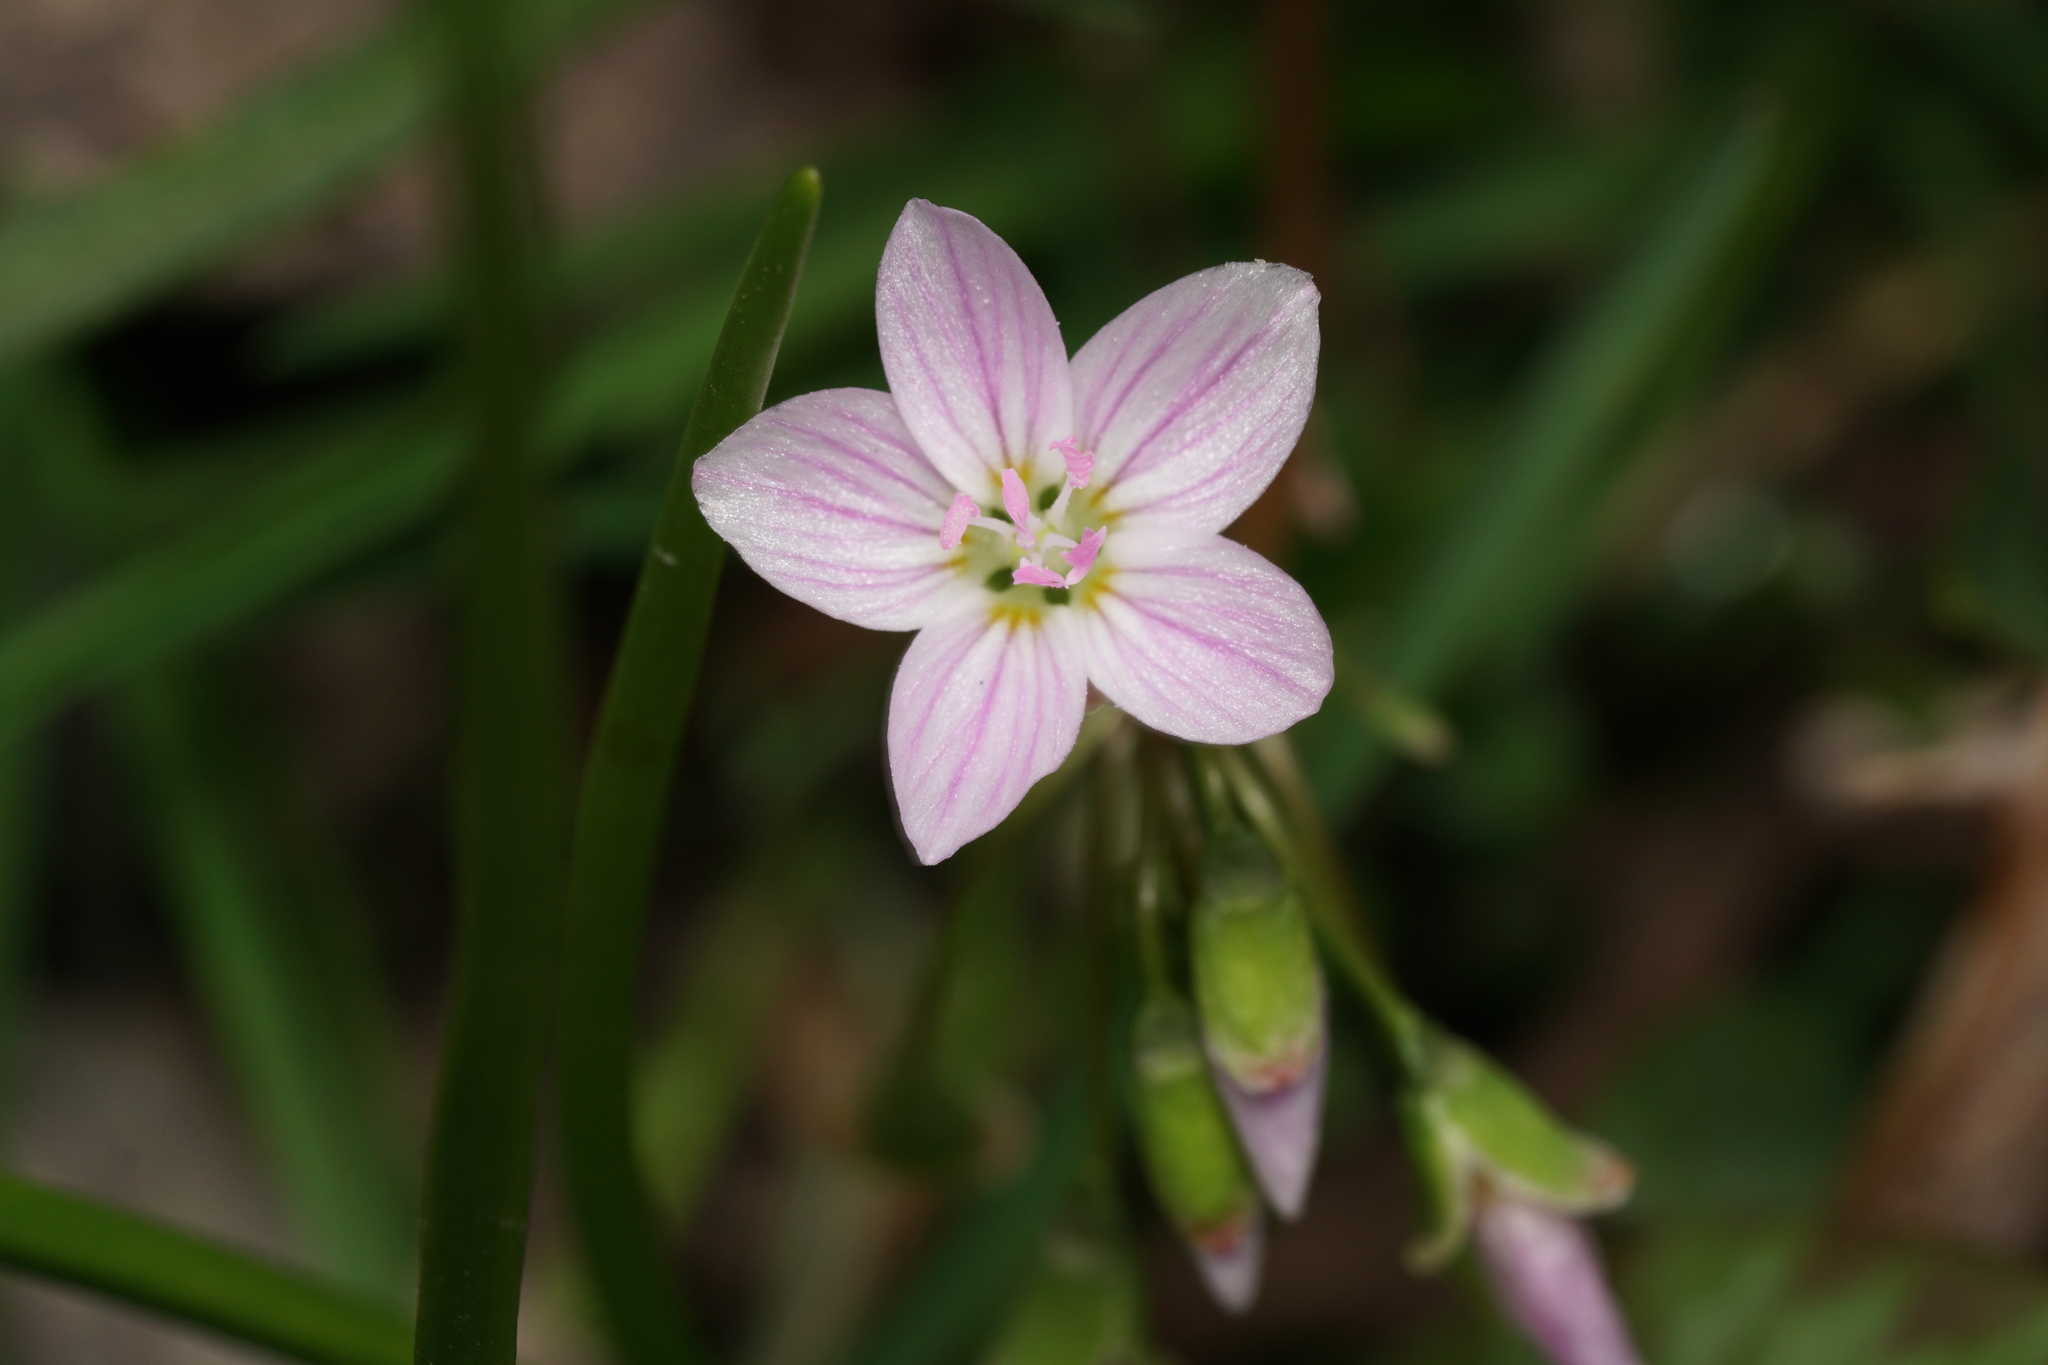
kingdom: Plantae
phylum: Tracheophyta
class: Magnoliopsida
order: Caryophyllales
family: Montiaceae
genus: Claytonia
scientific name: Claytonia virginica
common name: Virginia springbeauty
